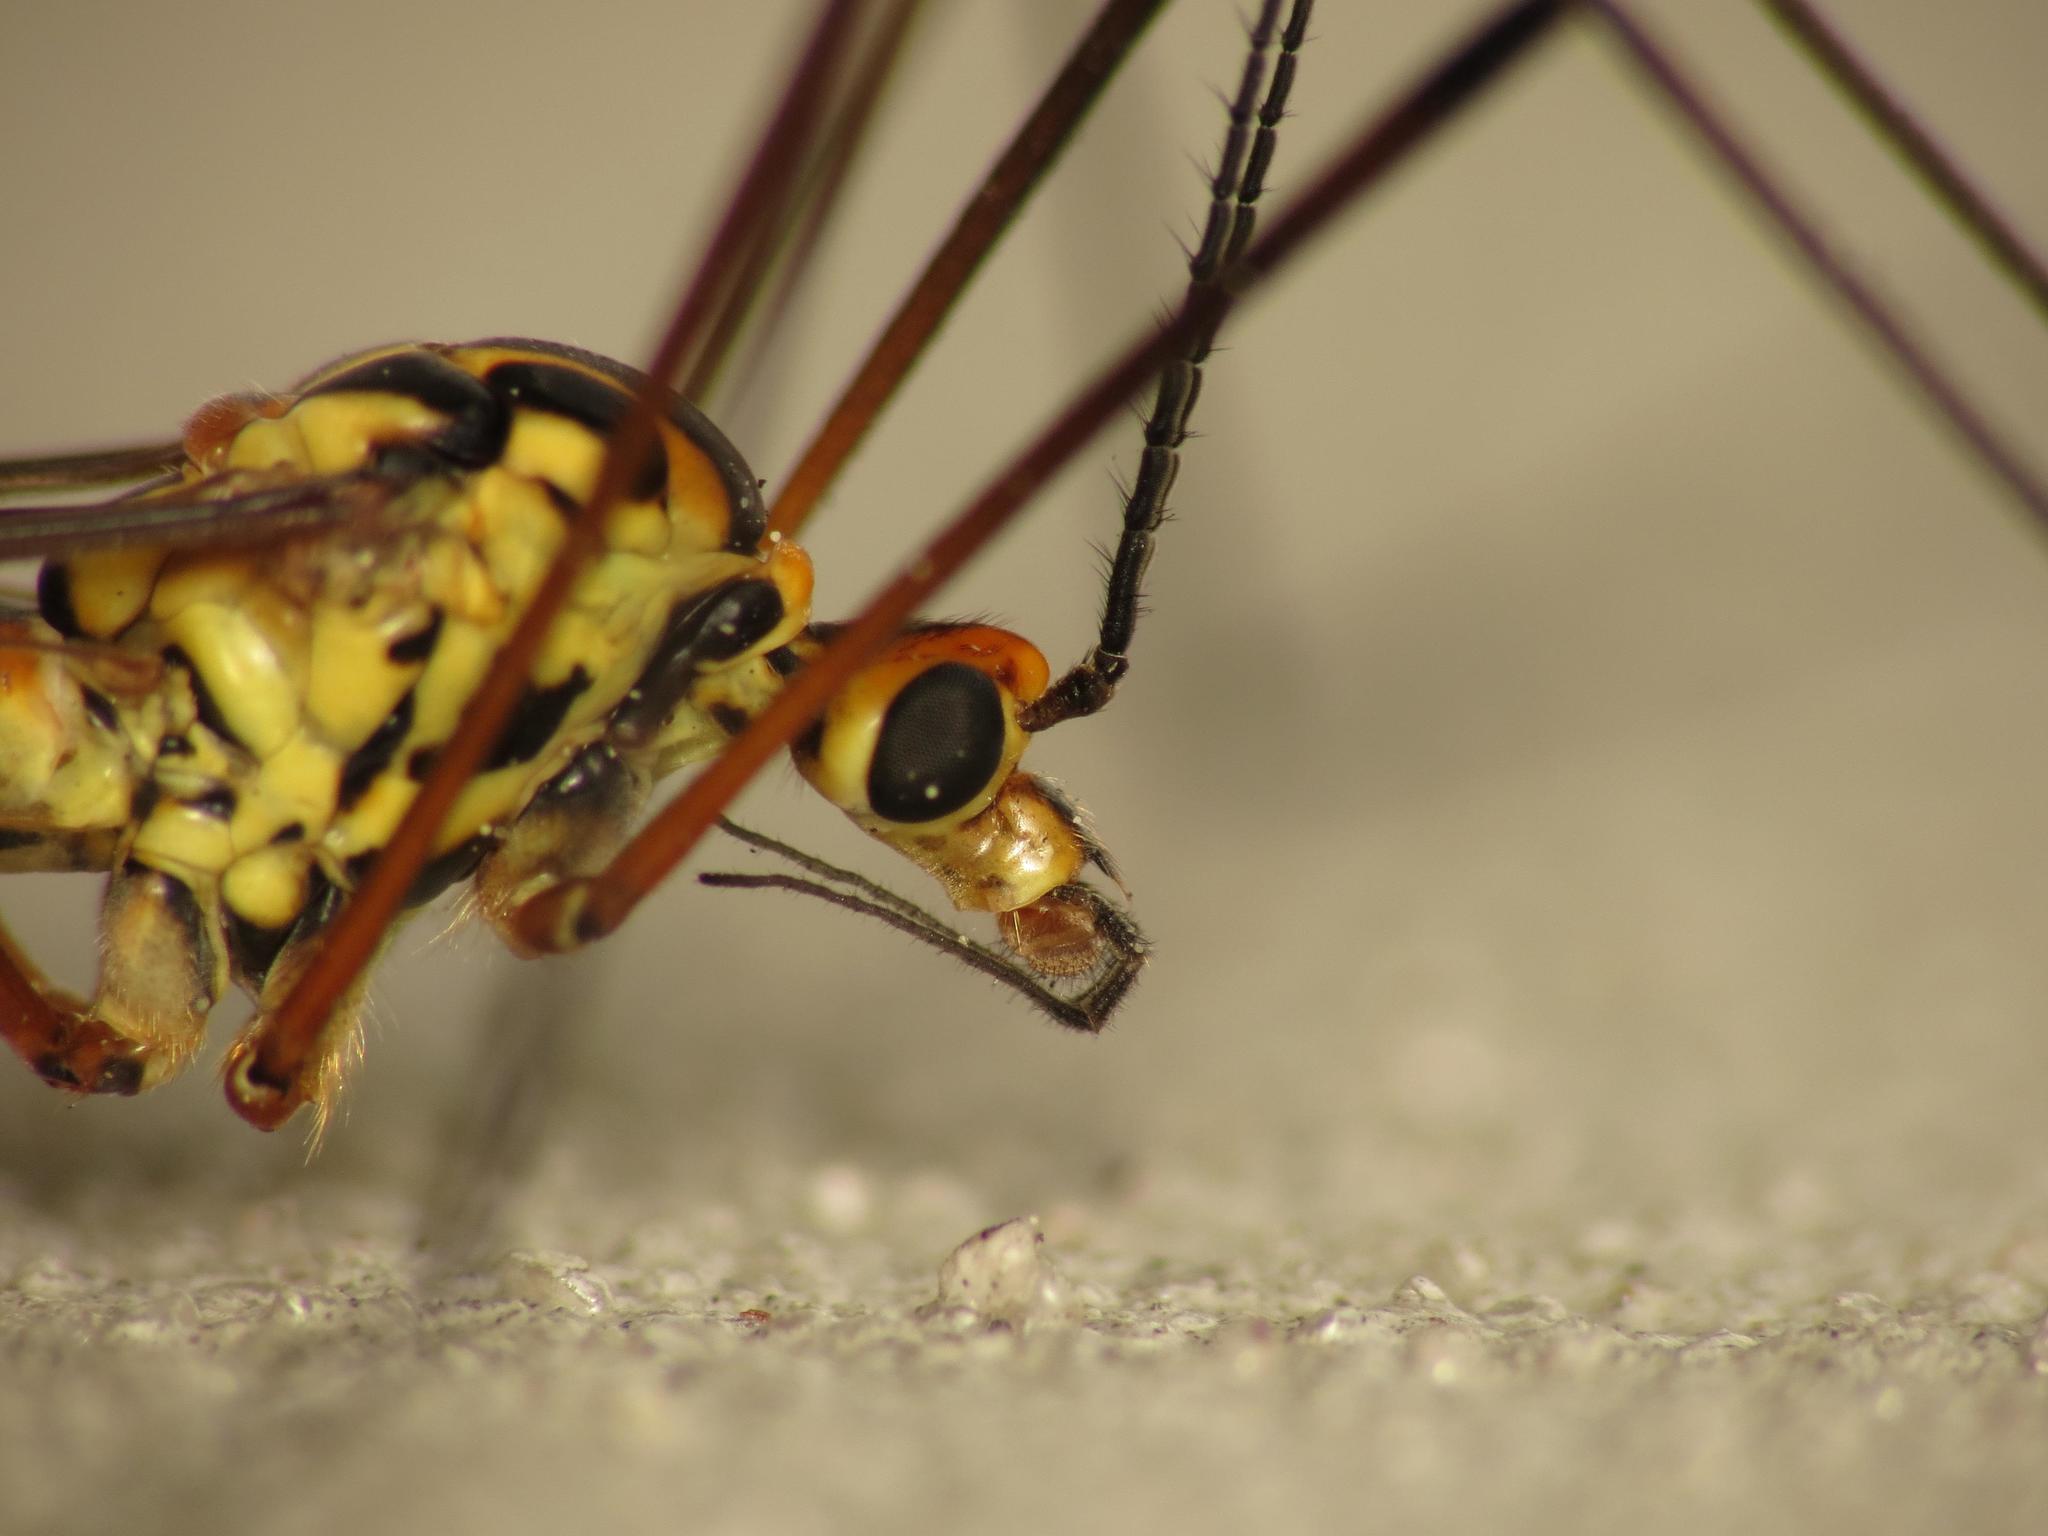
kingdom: Animalia
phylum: Arthropoda
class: Insecta
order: Diptera
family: Tipulidae
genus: Nephrotoma
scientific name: Nephrotoma submaculosa
